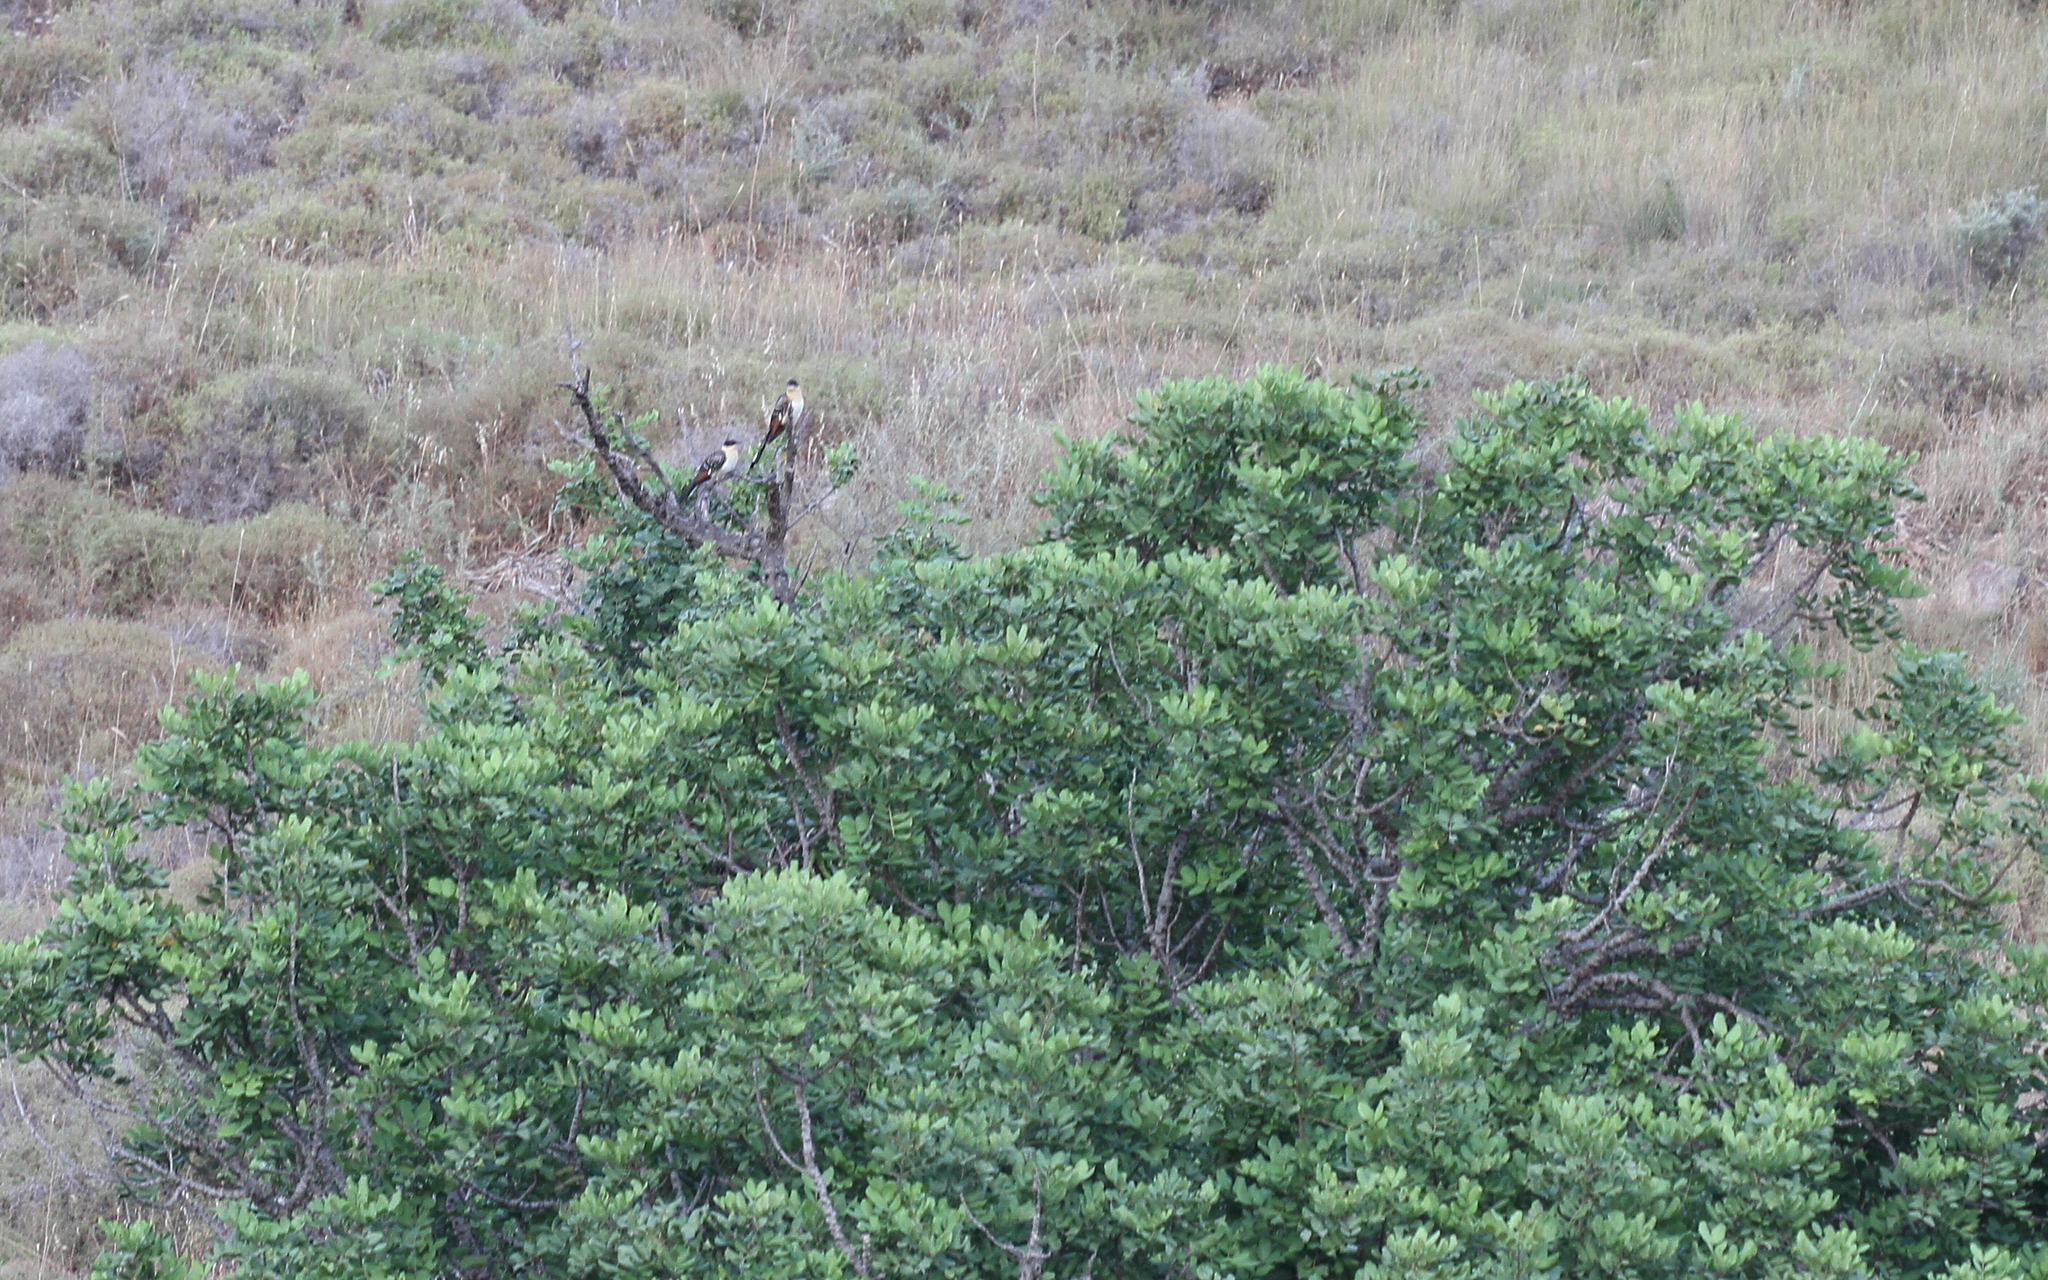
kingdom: Animalia
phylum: Chordata
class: Aves
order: Cuculiformes
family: Cuculidae
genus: Clamator
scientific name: Clamator glandarius
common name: Great spotted cuckoo
